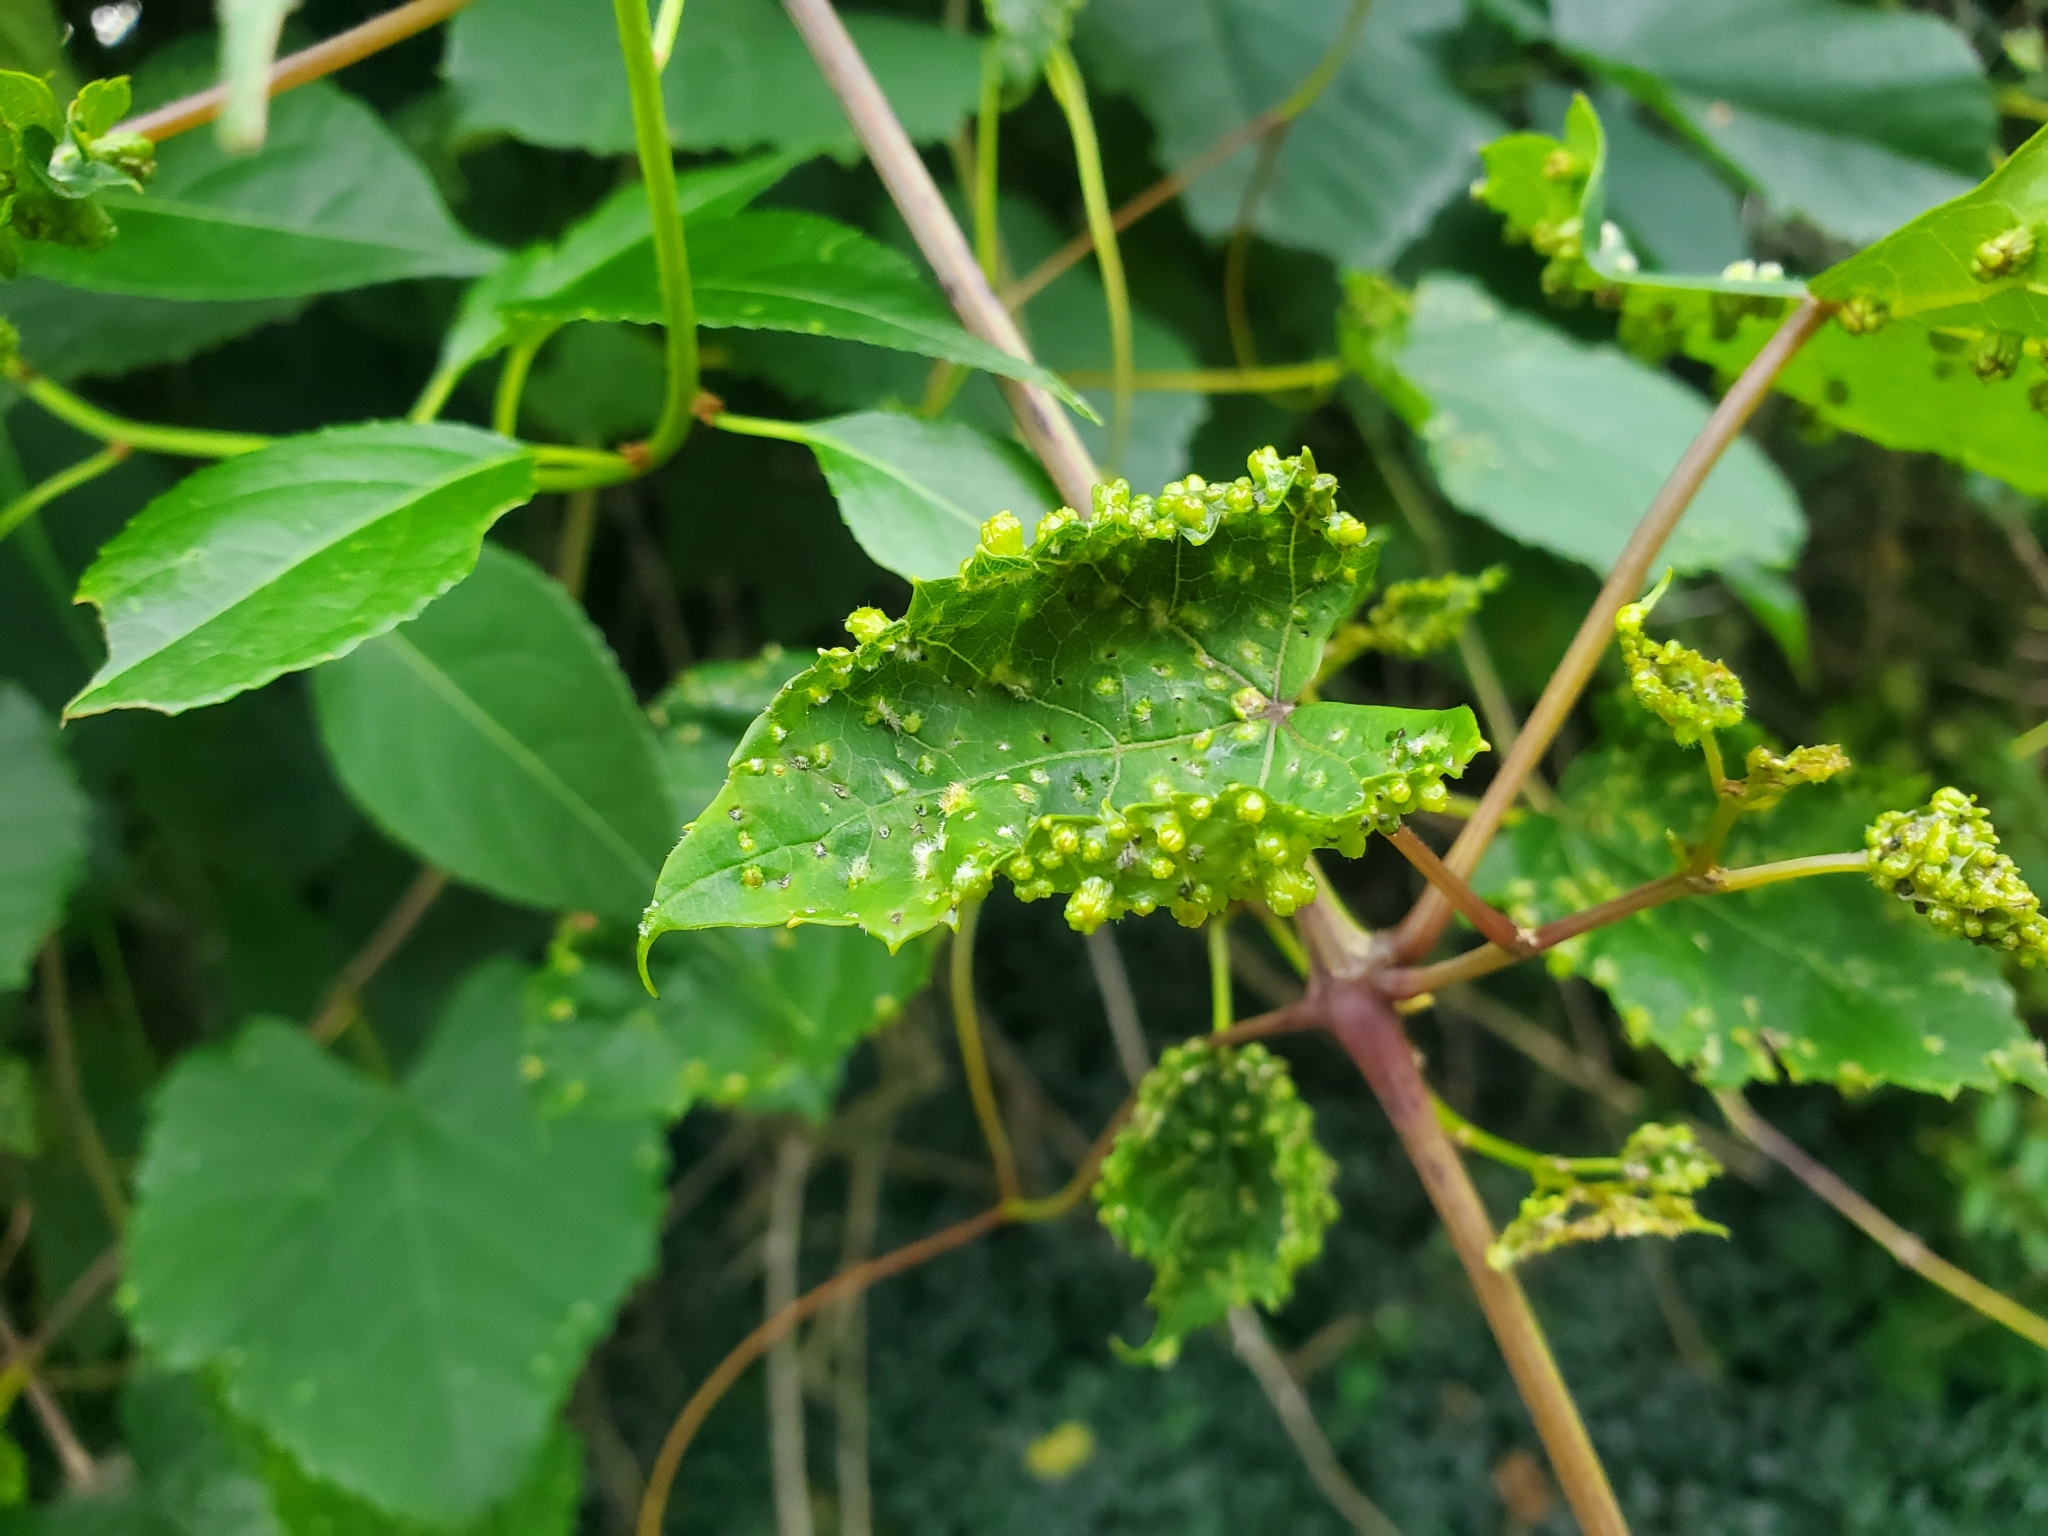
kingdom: Animalia
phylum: Arthropoda
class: Insecta
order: Hemiptera
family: Phylloxeridae
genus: Daktulosphaira
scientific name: Daktulosphaira vitifoliae
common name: Grape phylloxera
